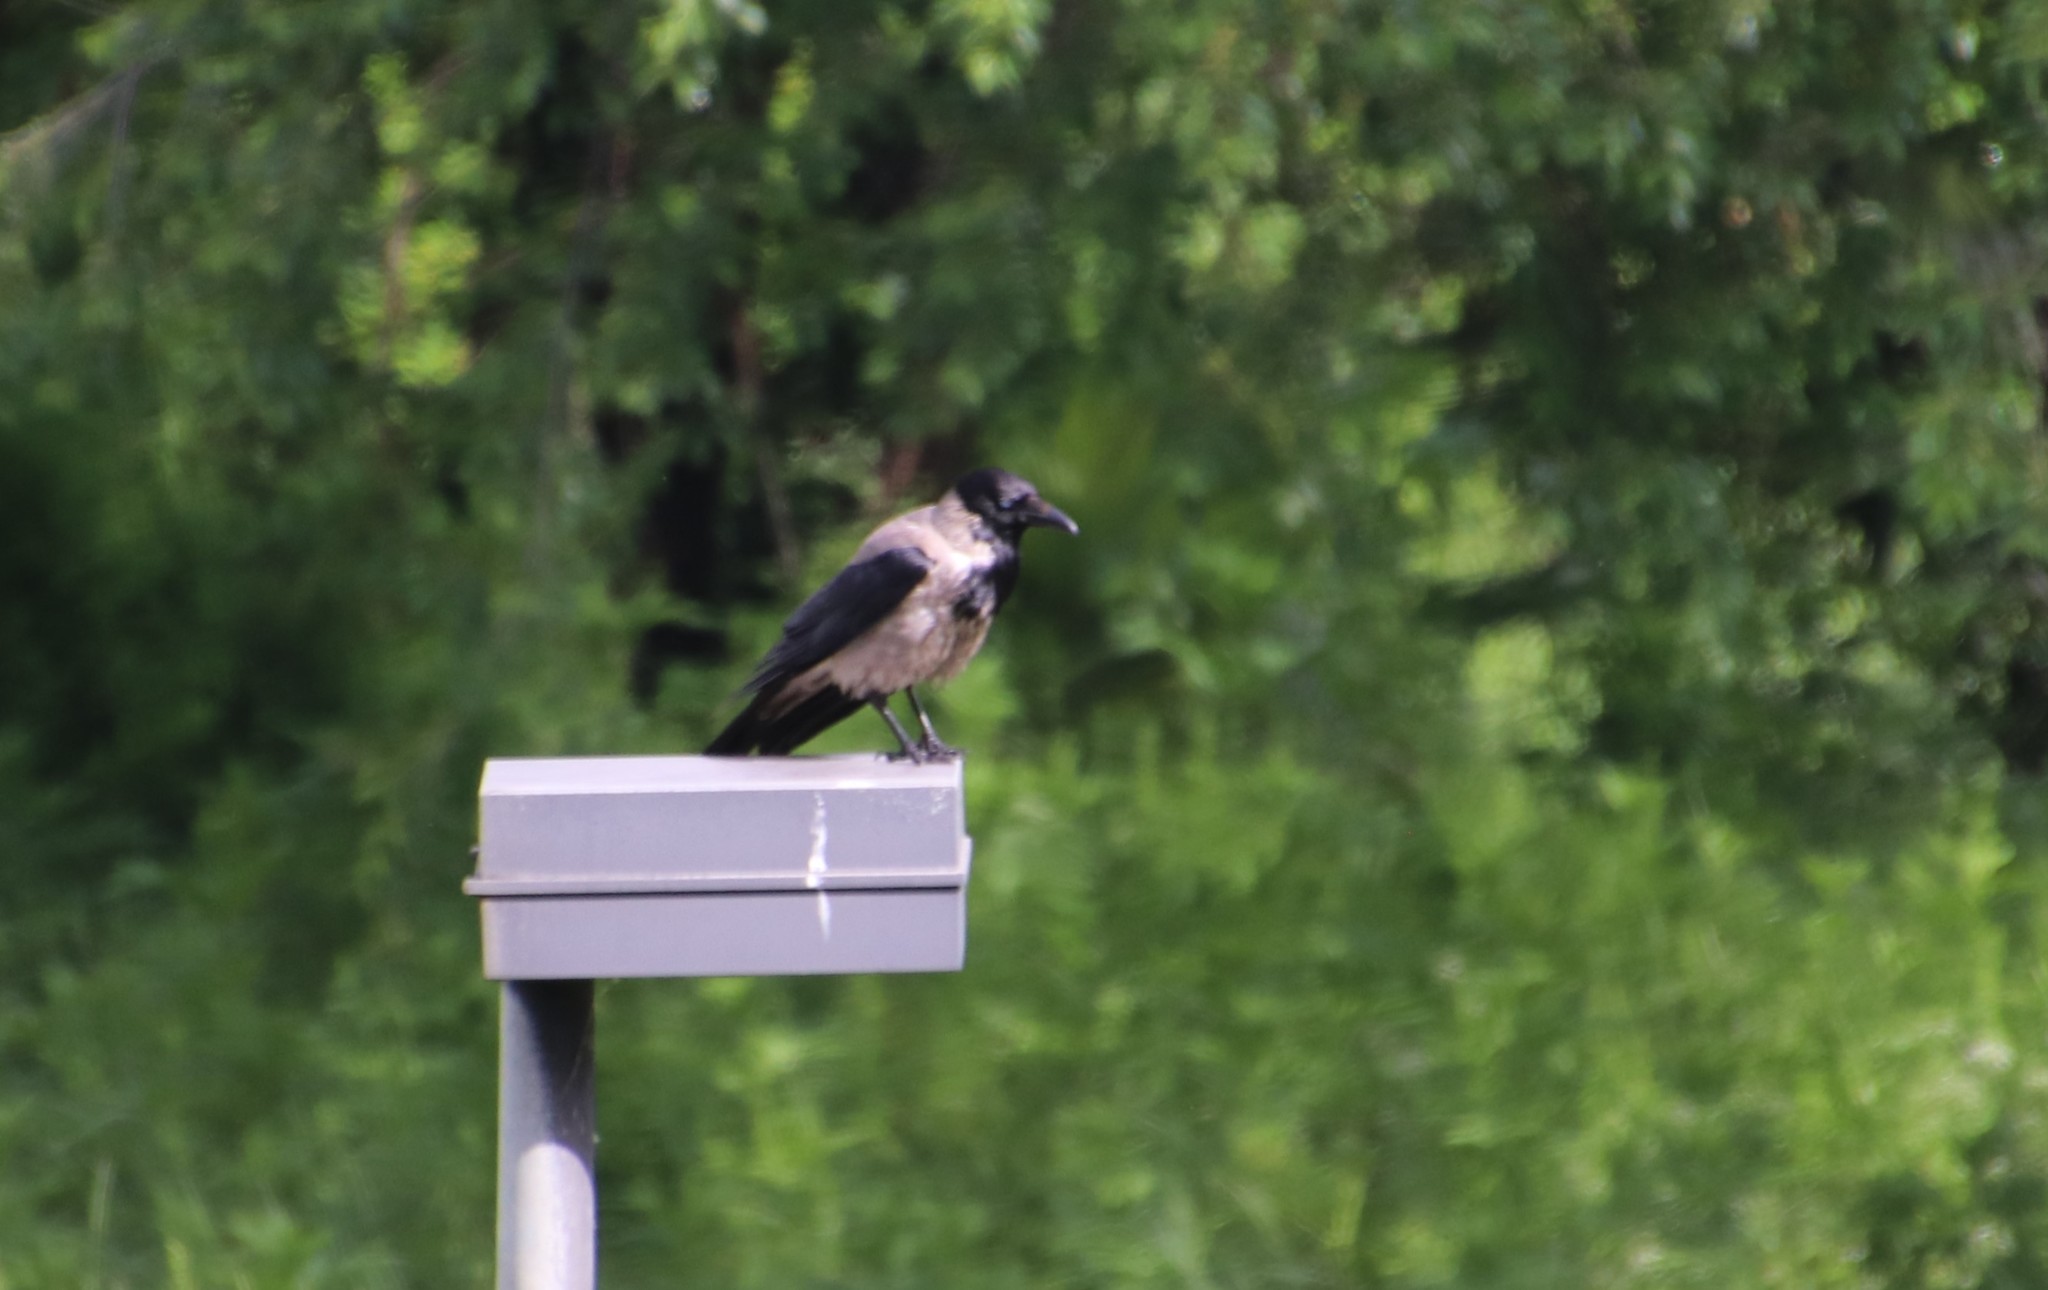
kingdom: Animalia
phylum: Chordata
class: Aves
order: Passeriformes
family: Corvidae
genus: Corvus
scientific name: Corvus cornix
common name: Hooded crow
